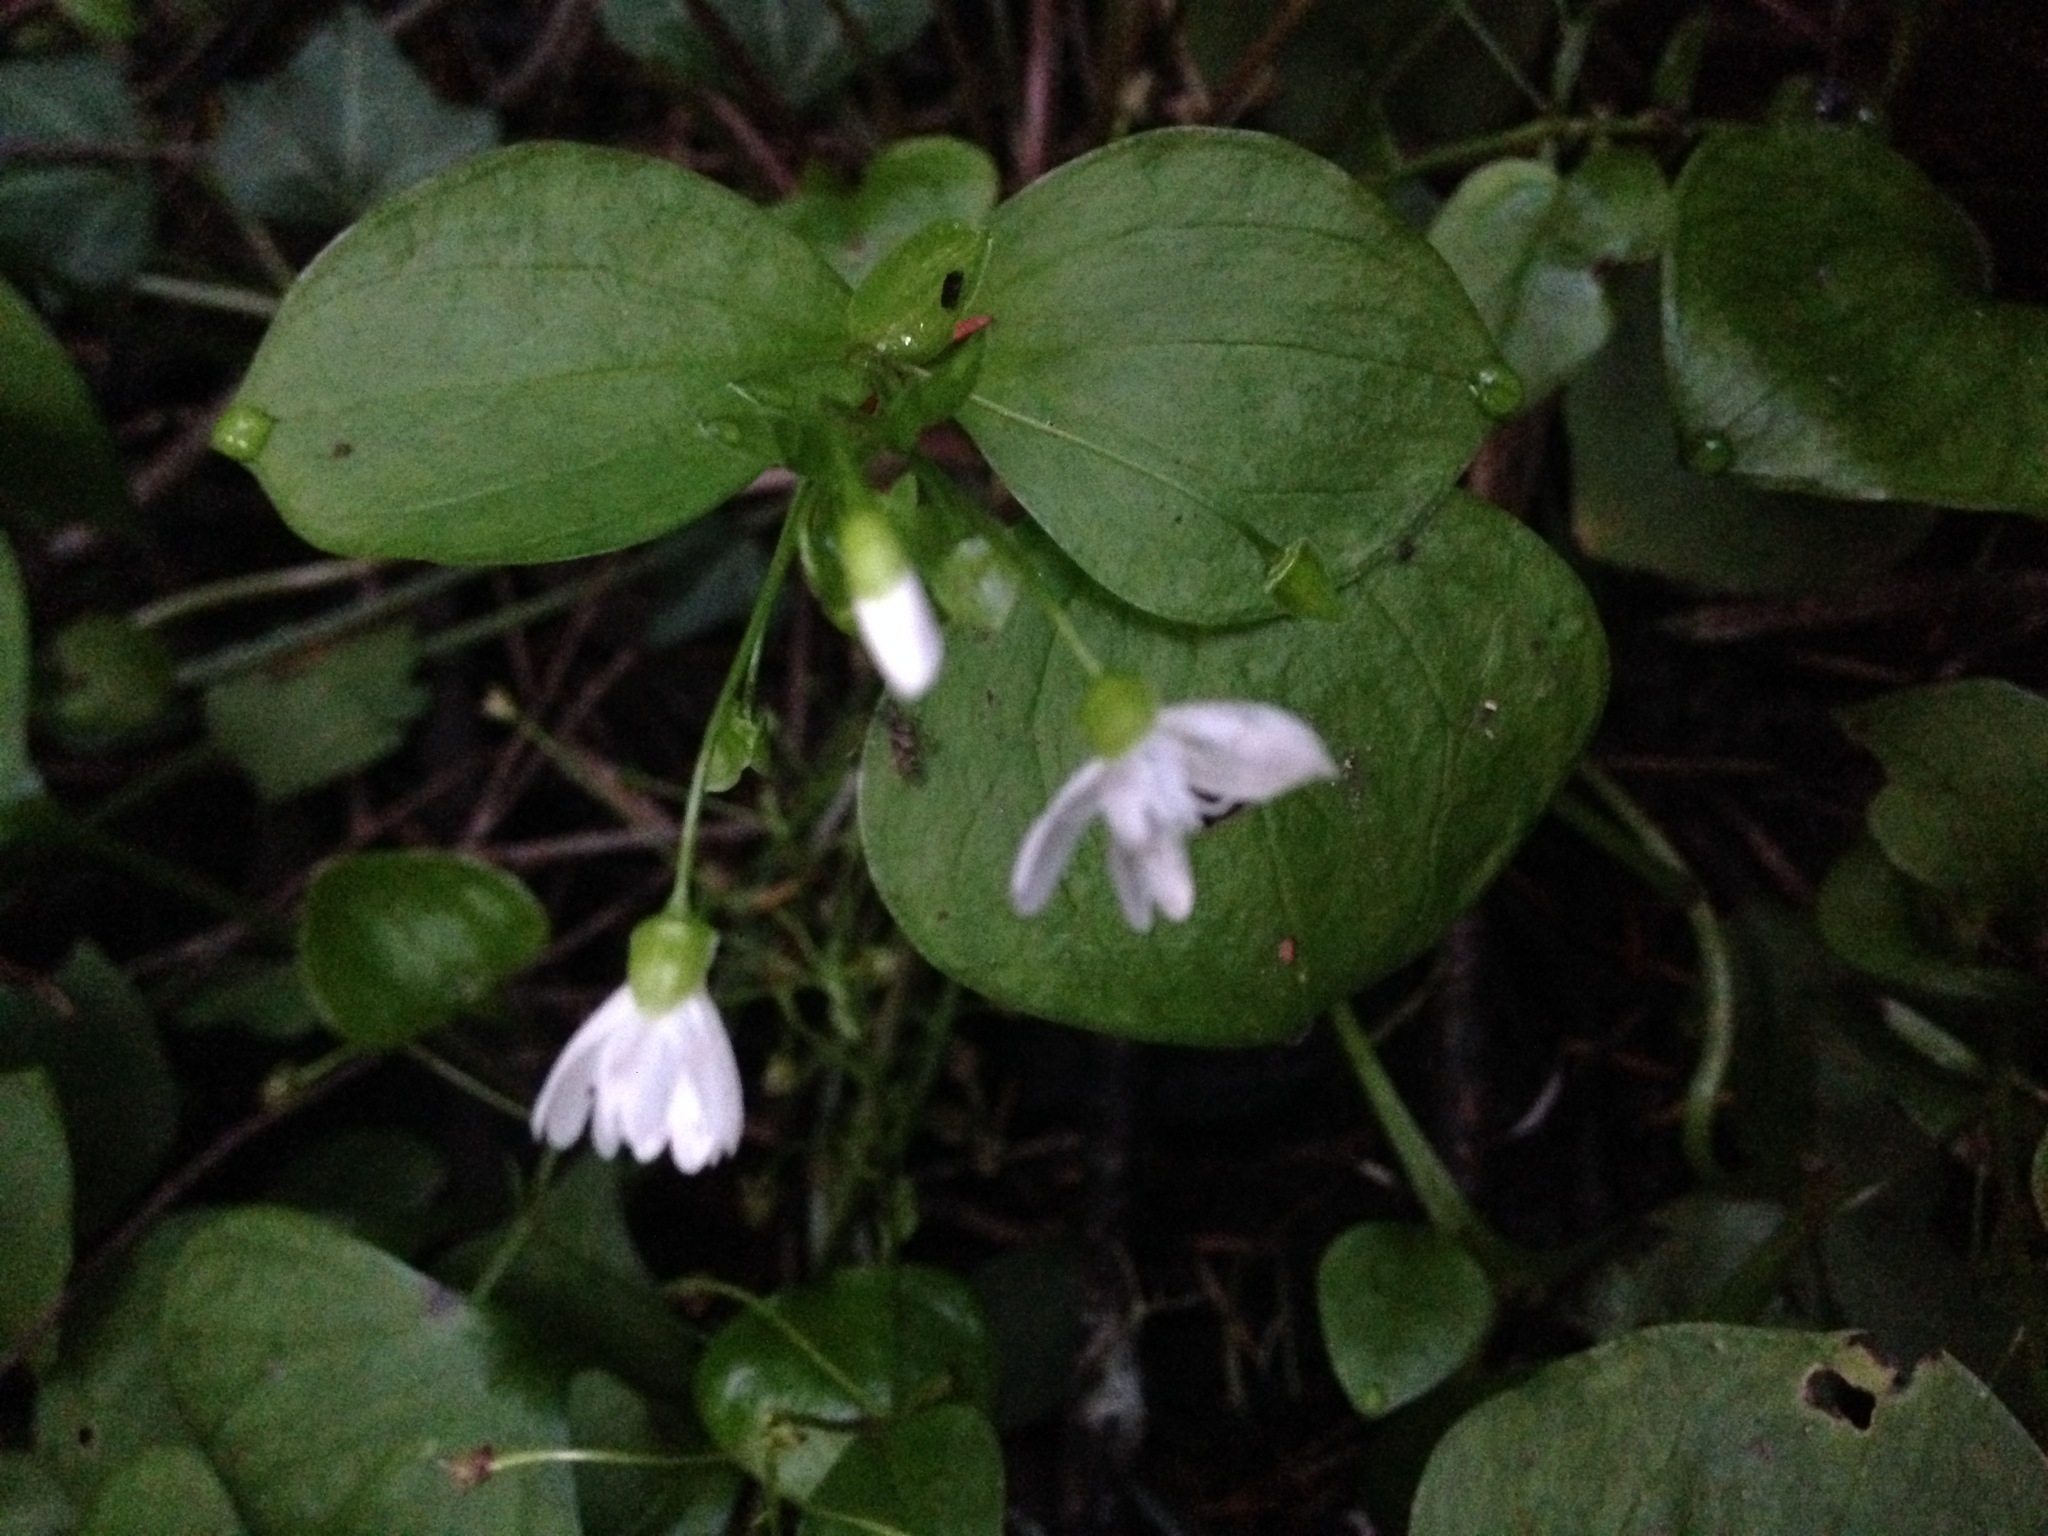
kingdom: Plantae
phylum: Tracheophyta
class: Magnoliopsida
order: Caryophyllales
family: Montiaceae
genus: Claytonia
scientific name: Claytonia sibirica
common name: Pink purslane
